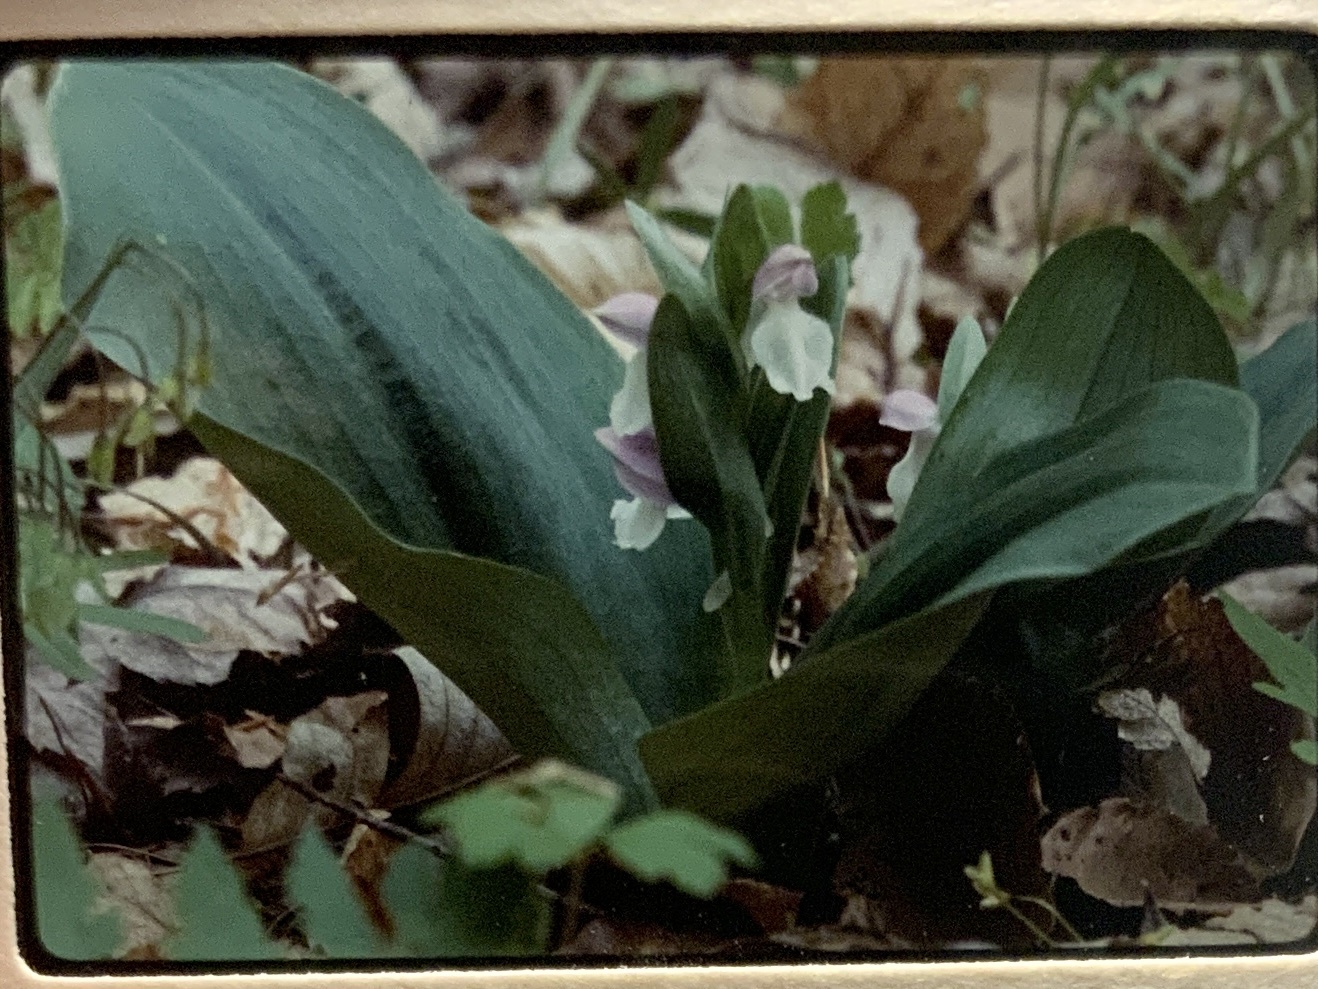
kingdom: Plantae
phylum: Tracheophyta
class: Liliopsida
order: Asparagales
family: Orchidaceae
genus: Galearis
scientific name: Galearis spectabilis
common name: Purple-hooded orchis
